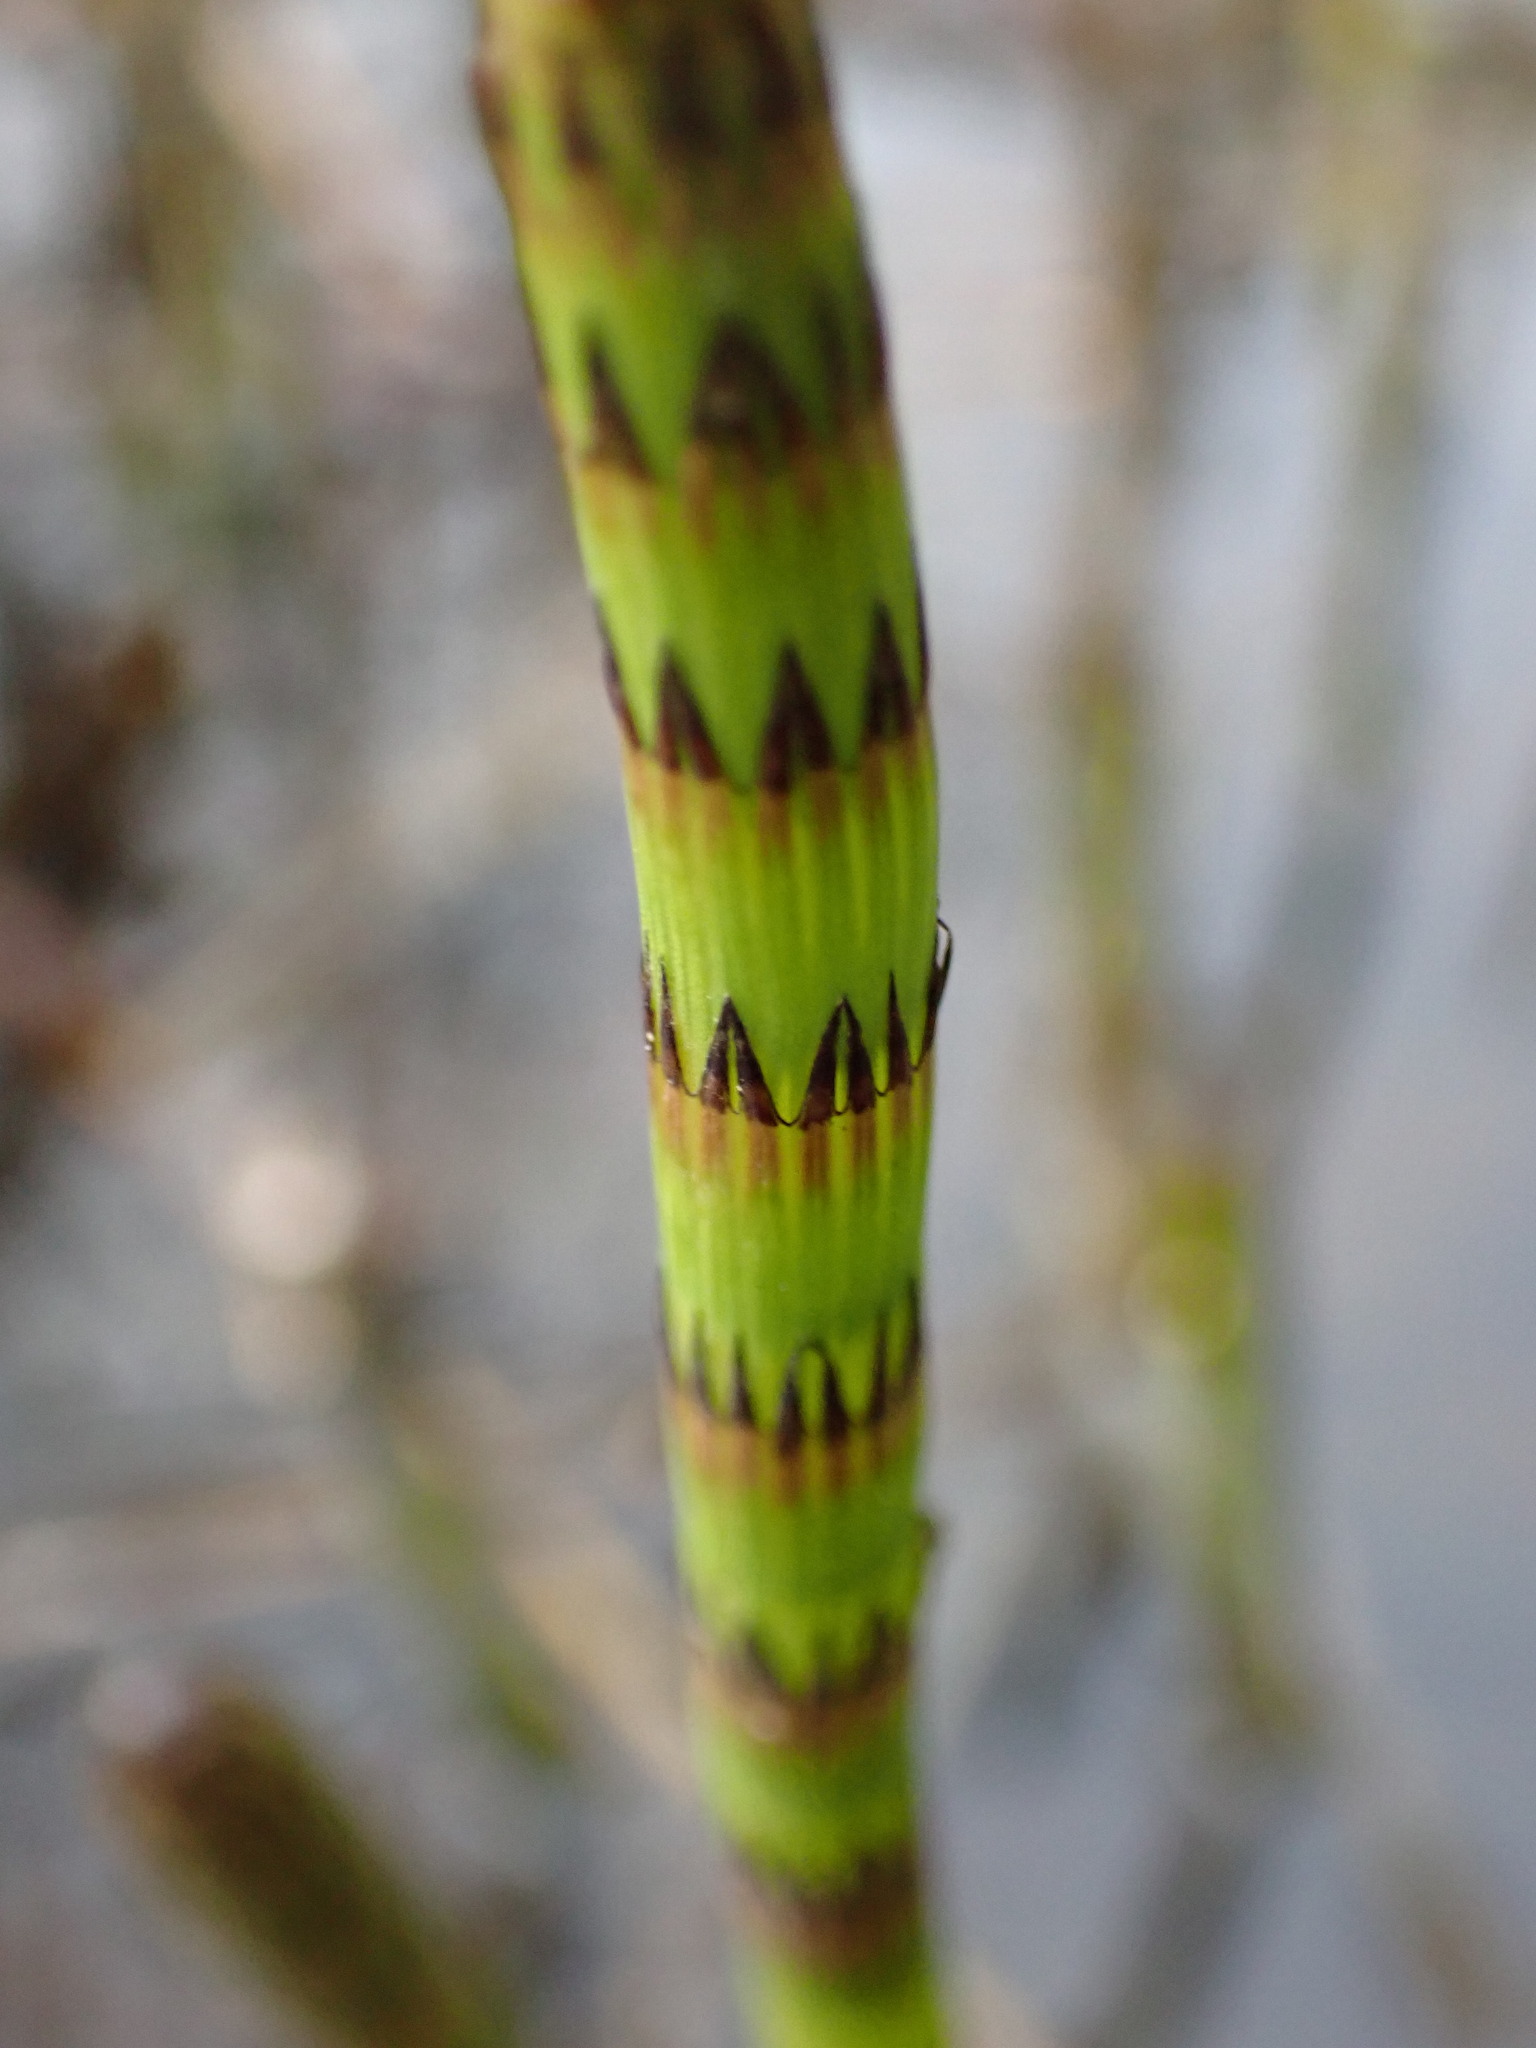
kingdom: Plantae
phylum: Tracheophyta
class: Polypodiopsida
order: Equisetales
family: Equisetaceae
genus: Equisetum
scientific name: Equisetum fluviatile
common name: Water horsetail
